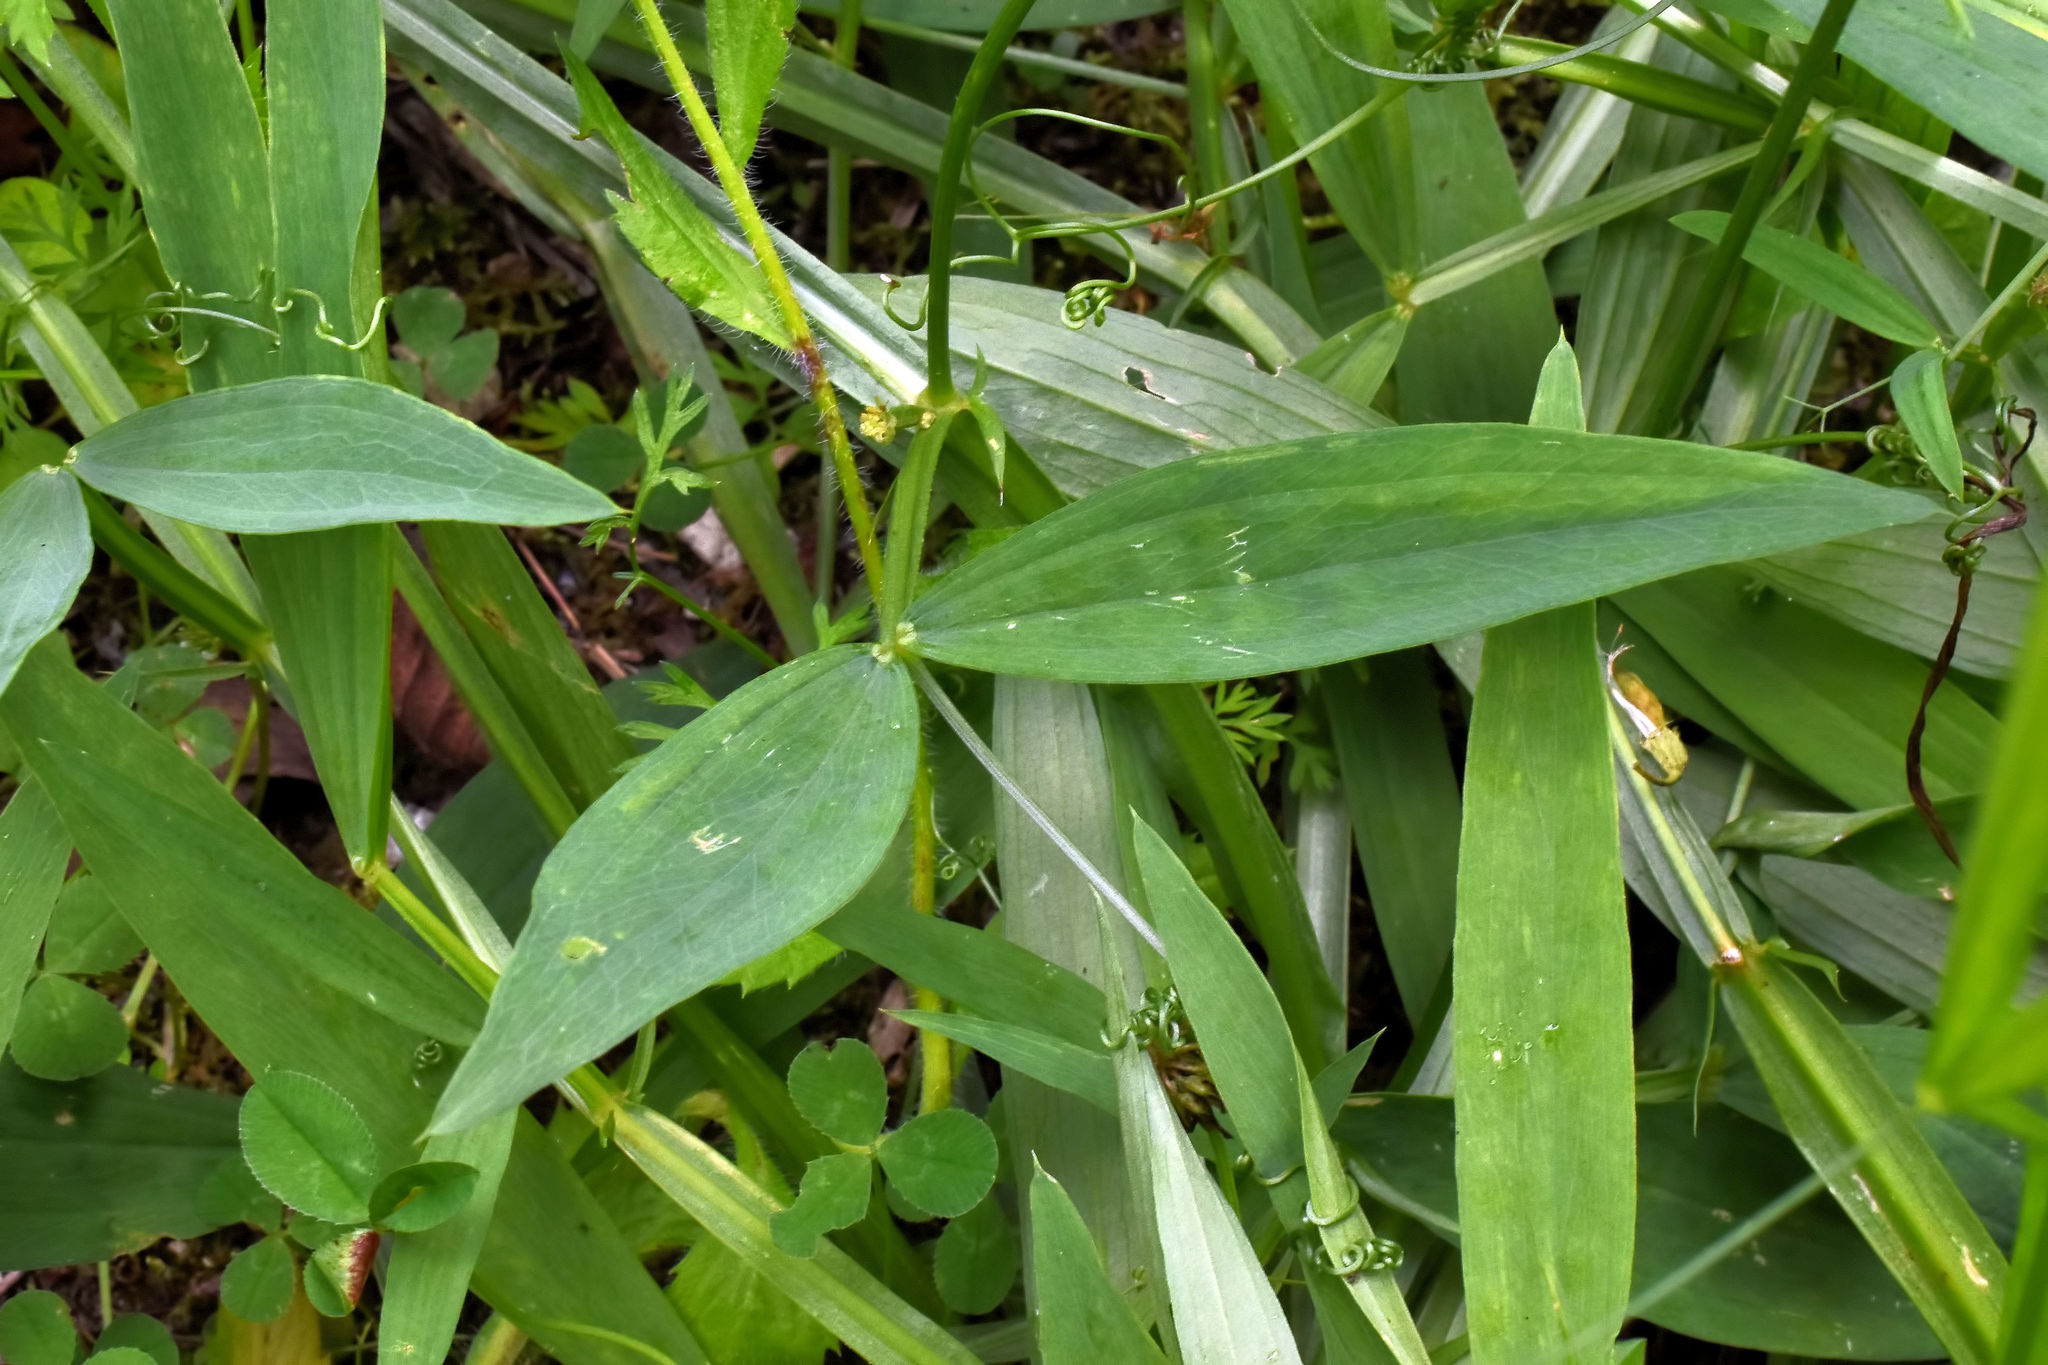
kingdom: Plantae
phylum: Tracheophyta
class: Magnoliopsida
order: Fabales
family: Fabaceae
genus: Lathyrus
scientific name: Lathyrus sylvestris
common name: Flat pea
